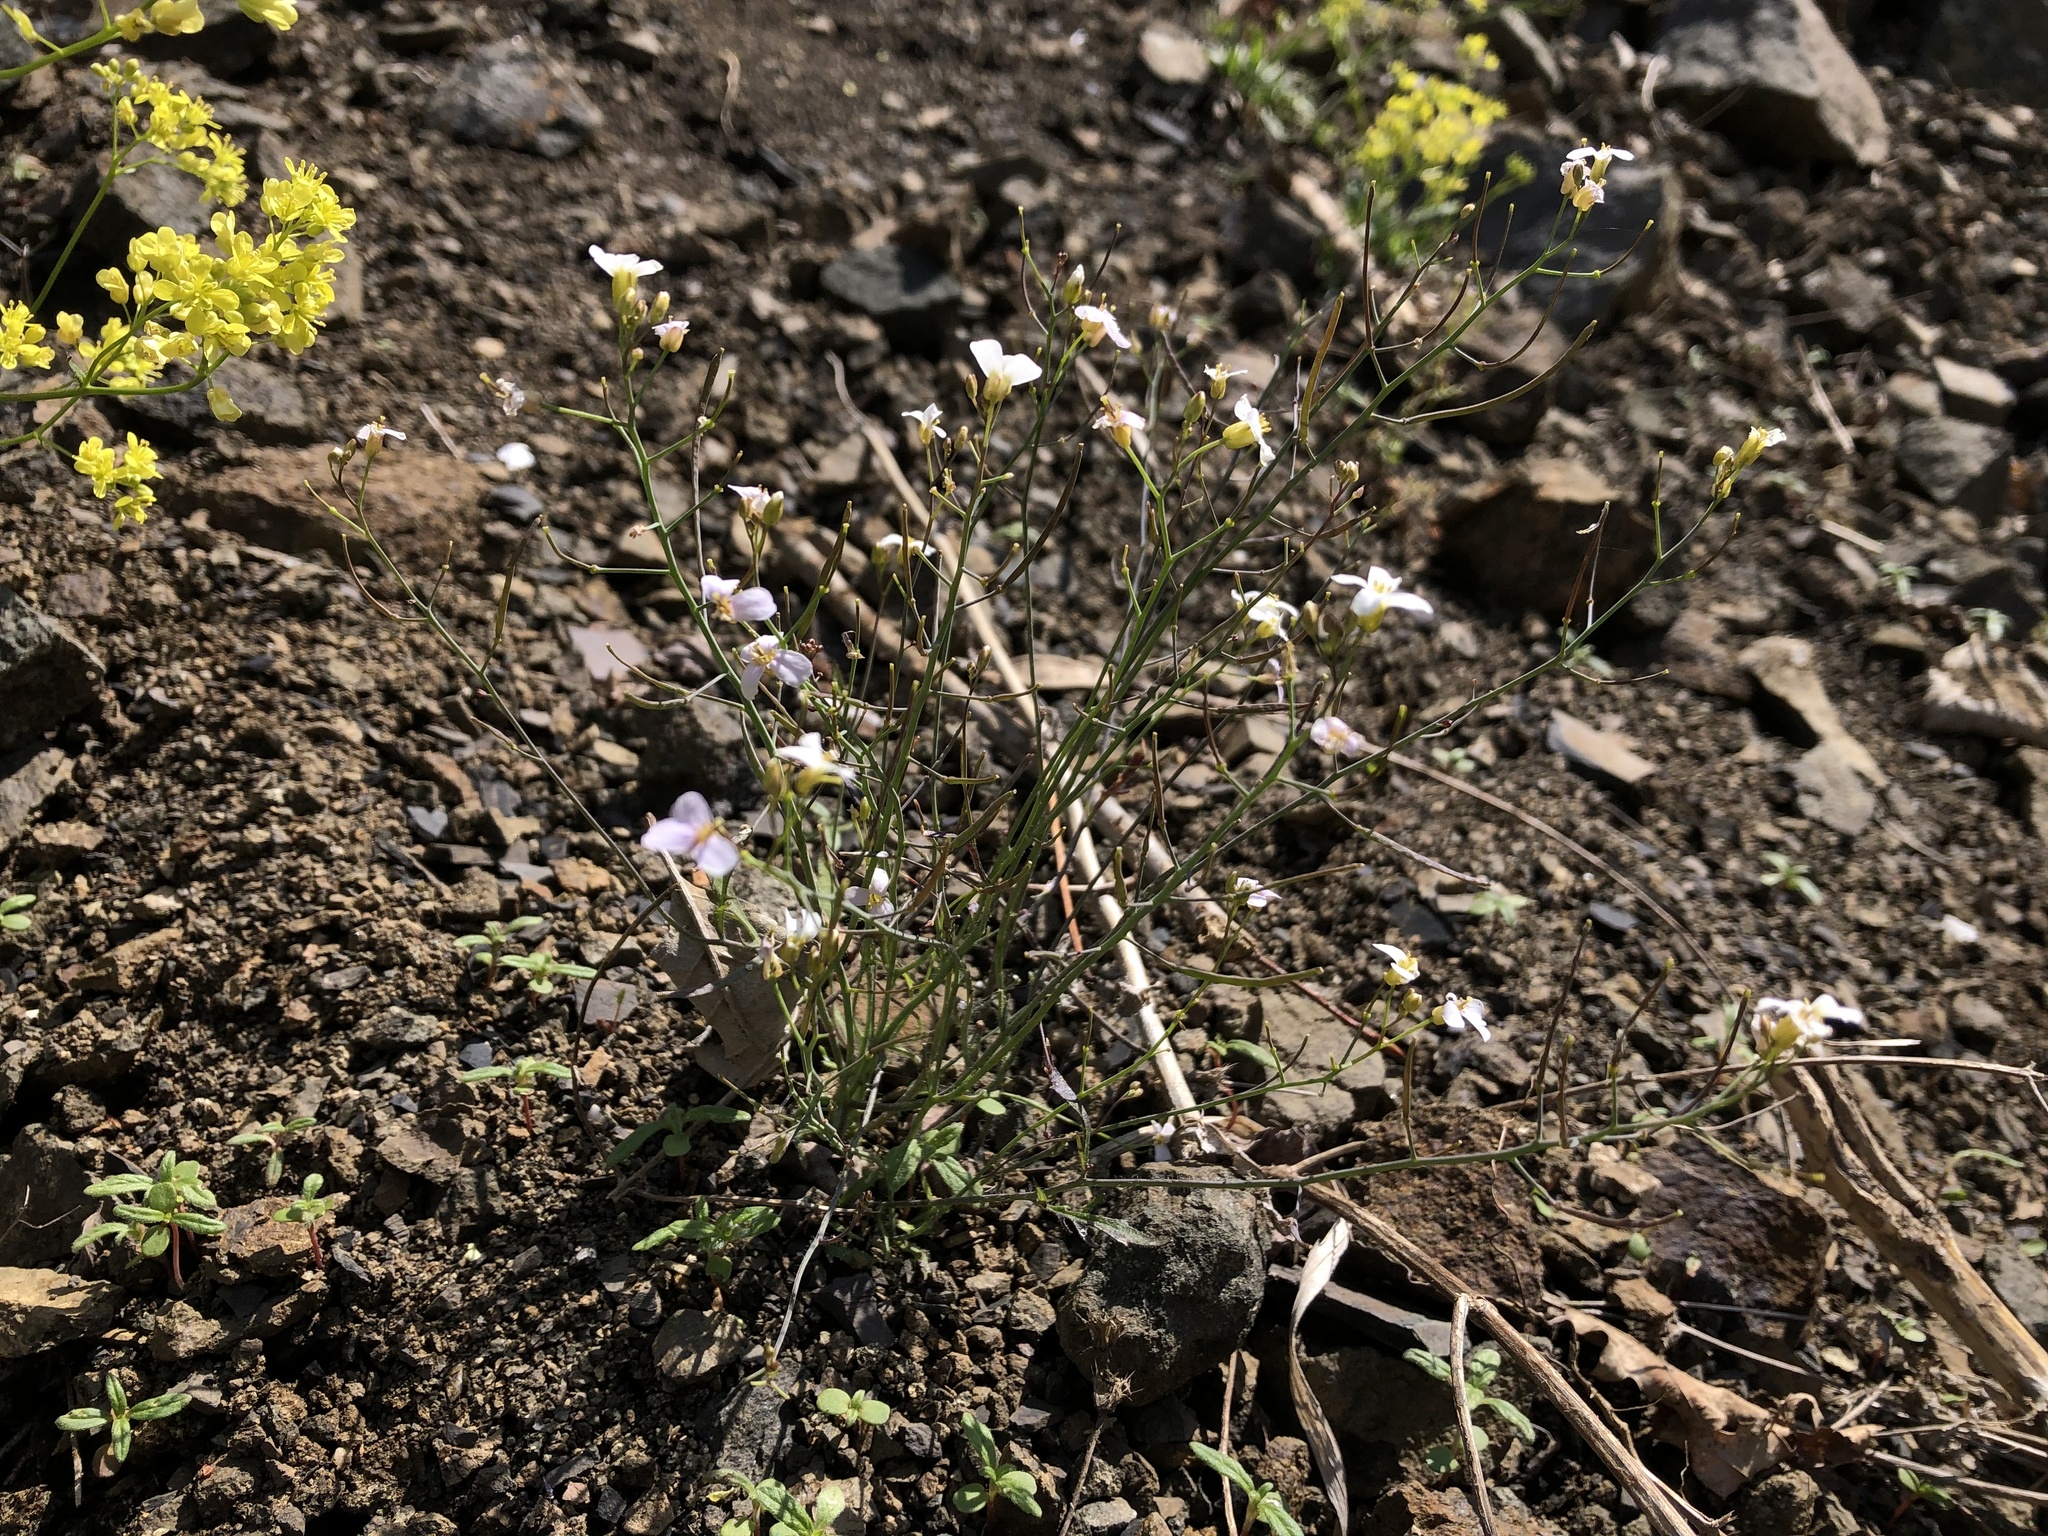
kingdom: Plantae
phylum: Tracheophyta
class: Magnoliopsida
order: Brassicales
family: Brassicaceae
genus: Arabidopsis
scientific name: Arabidopsis arenosa
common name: Sand rock-cress
